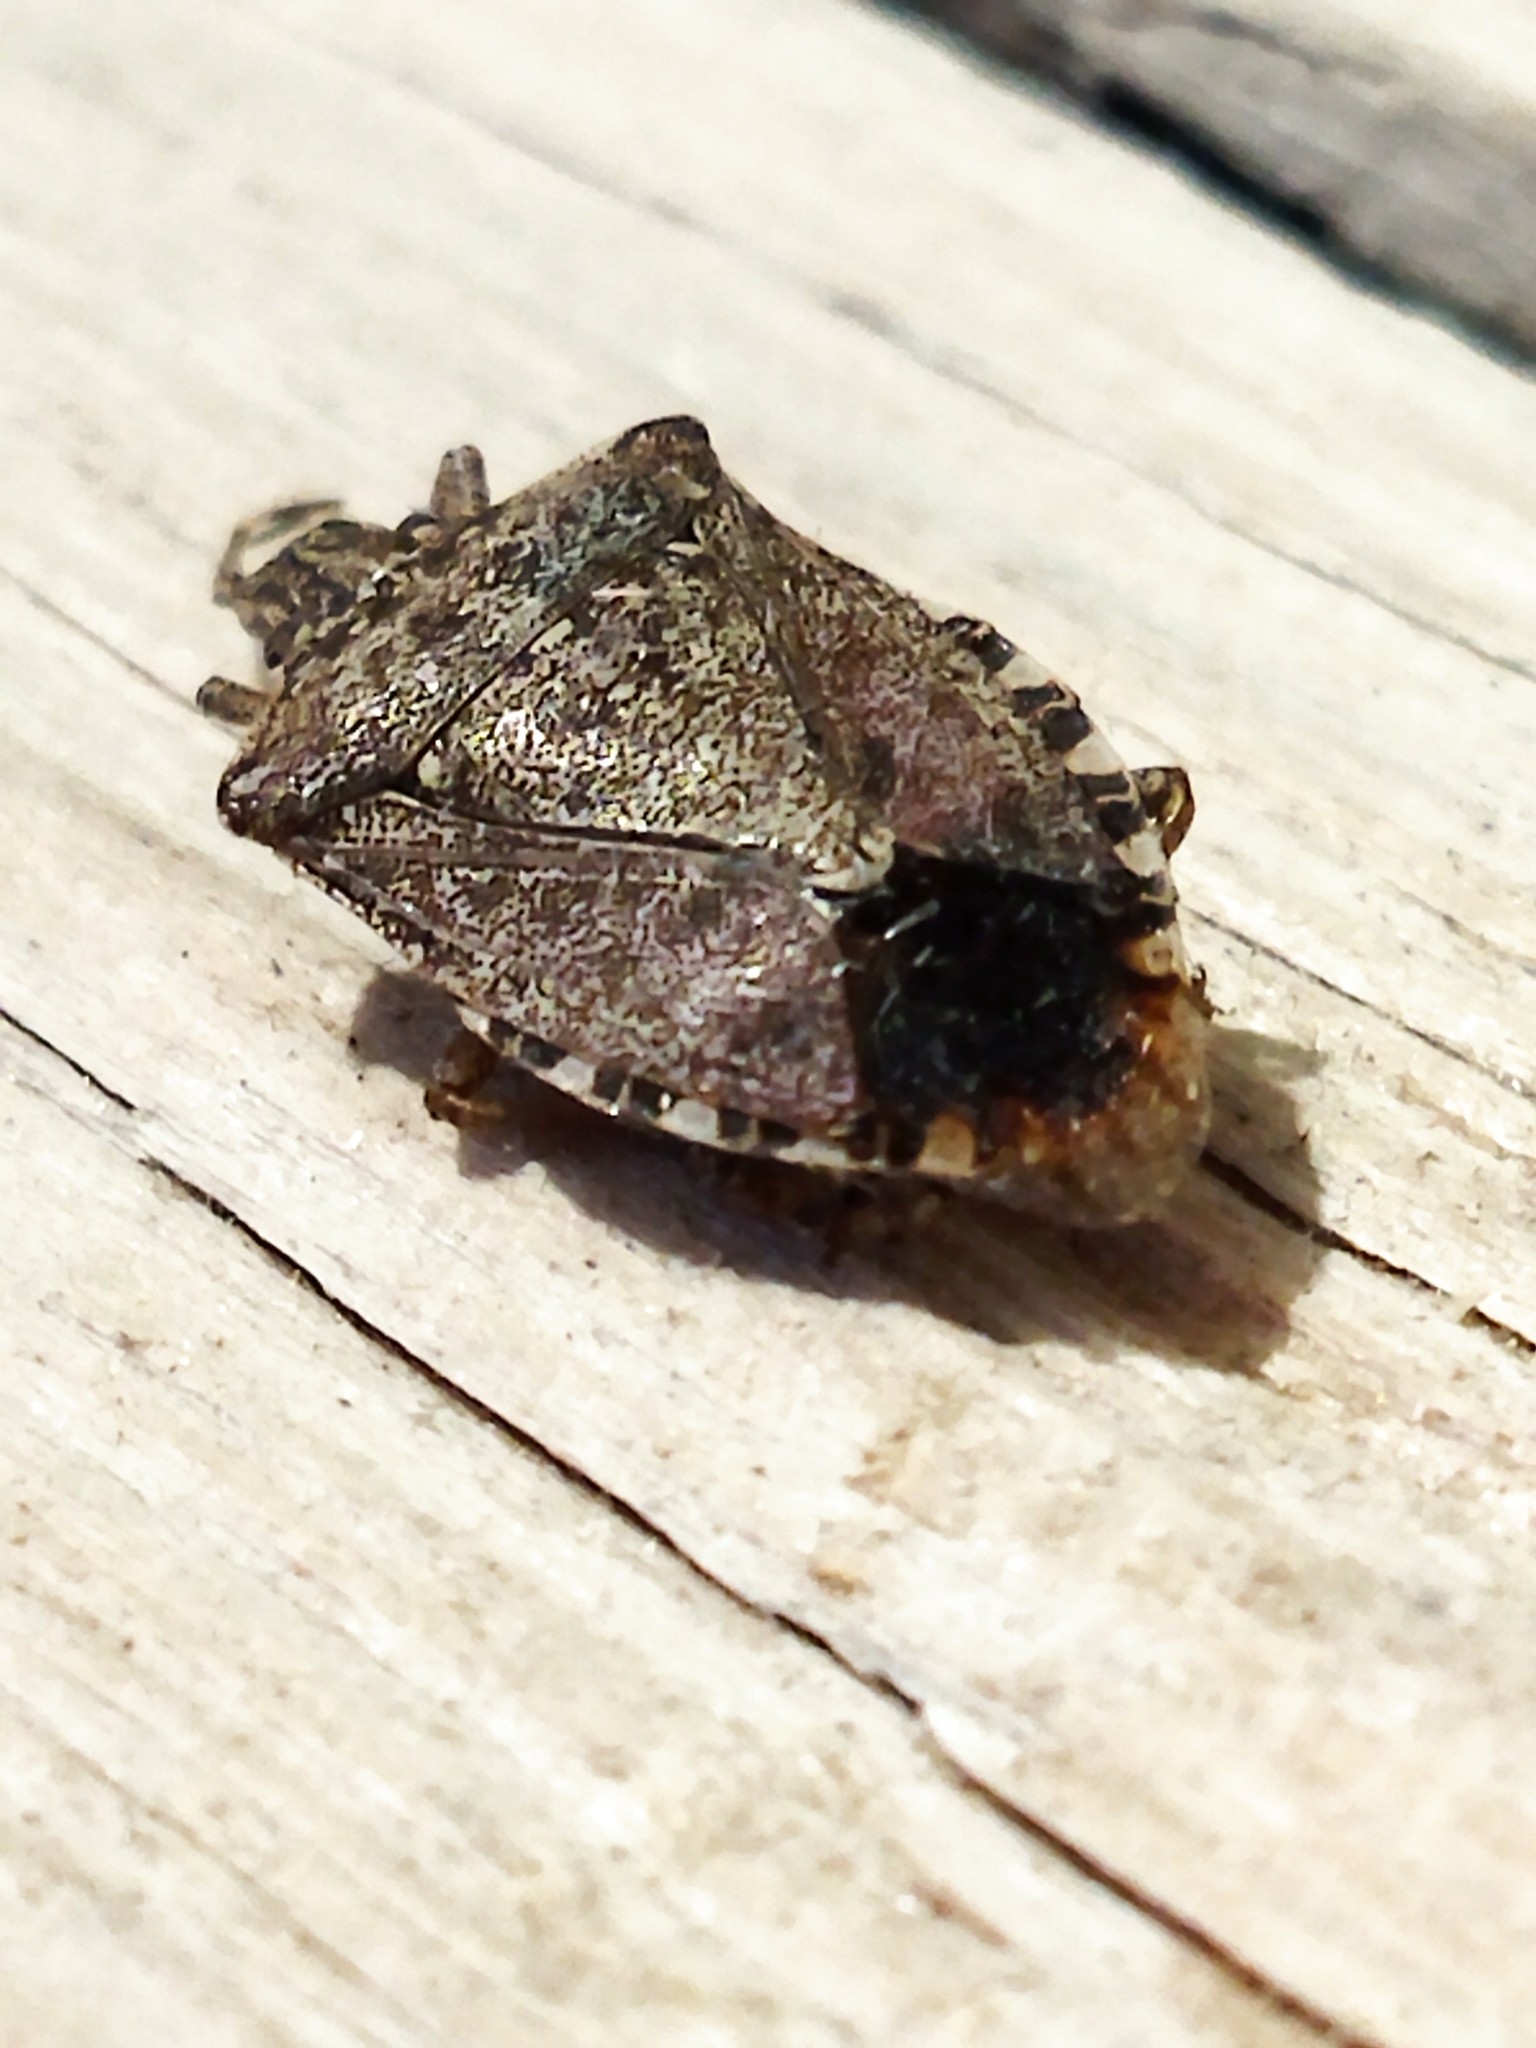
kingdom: Animalia
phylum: Arthropoda
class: Insecta
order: Hemiptera
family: Pentatomidae
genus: Halyomorpha
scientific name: Halyomorpha halys
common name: Brown marmorated stink bug
